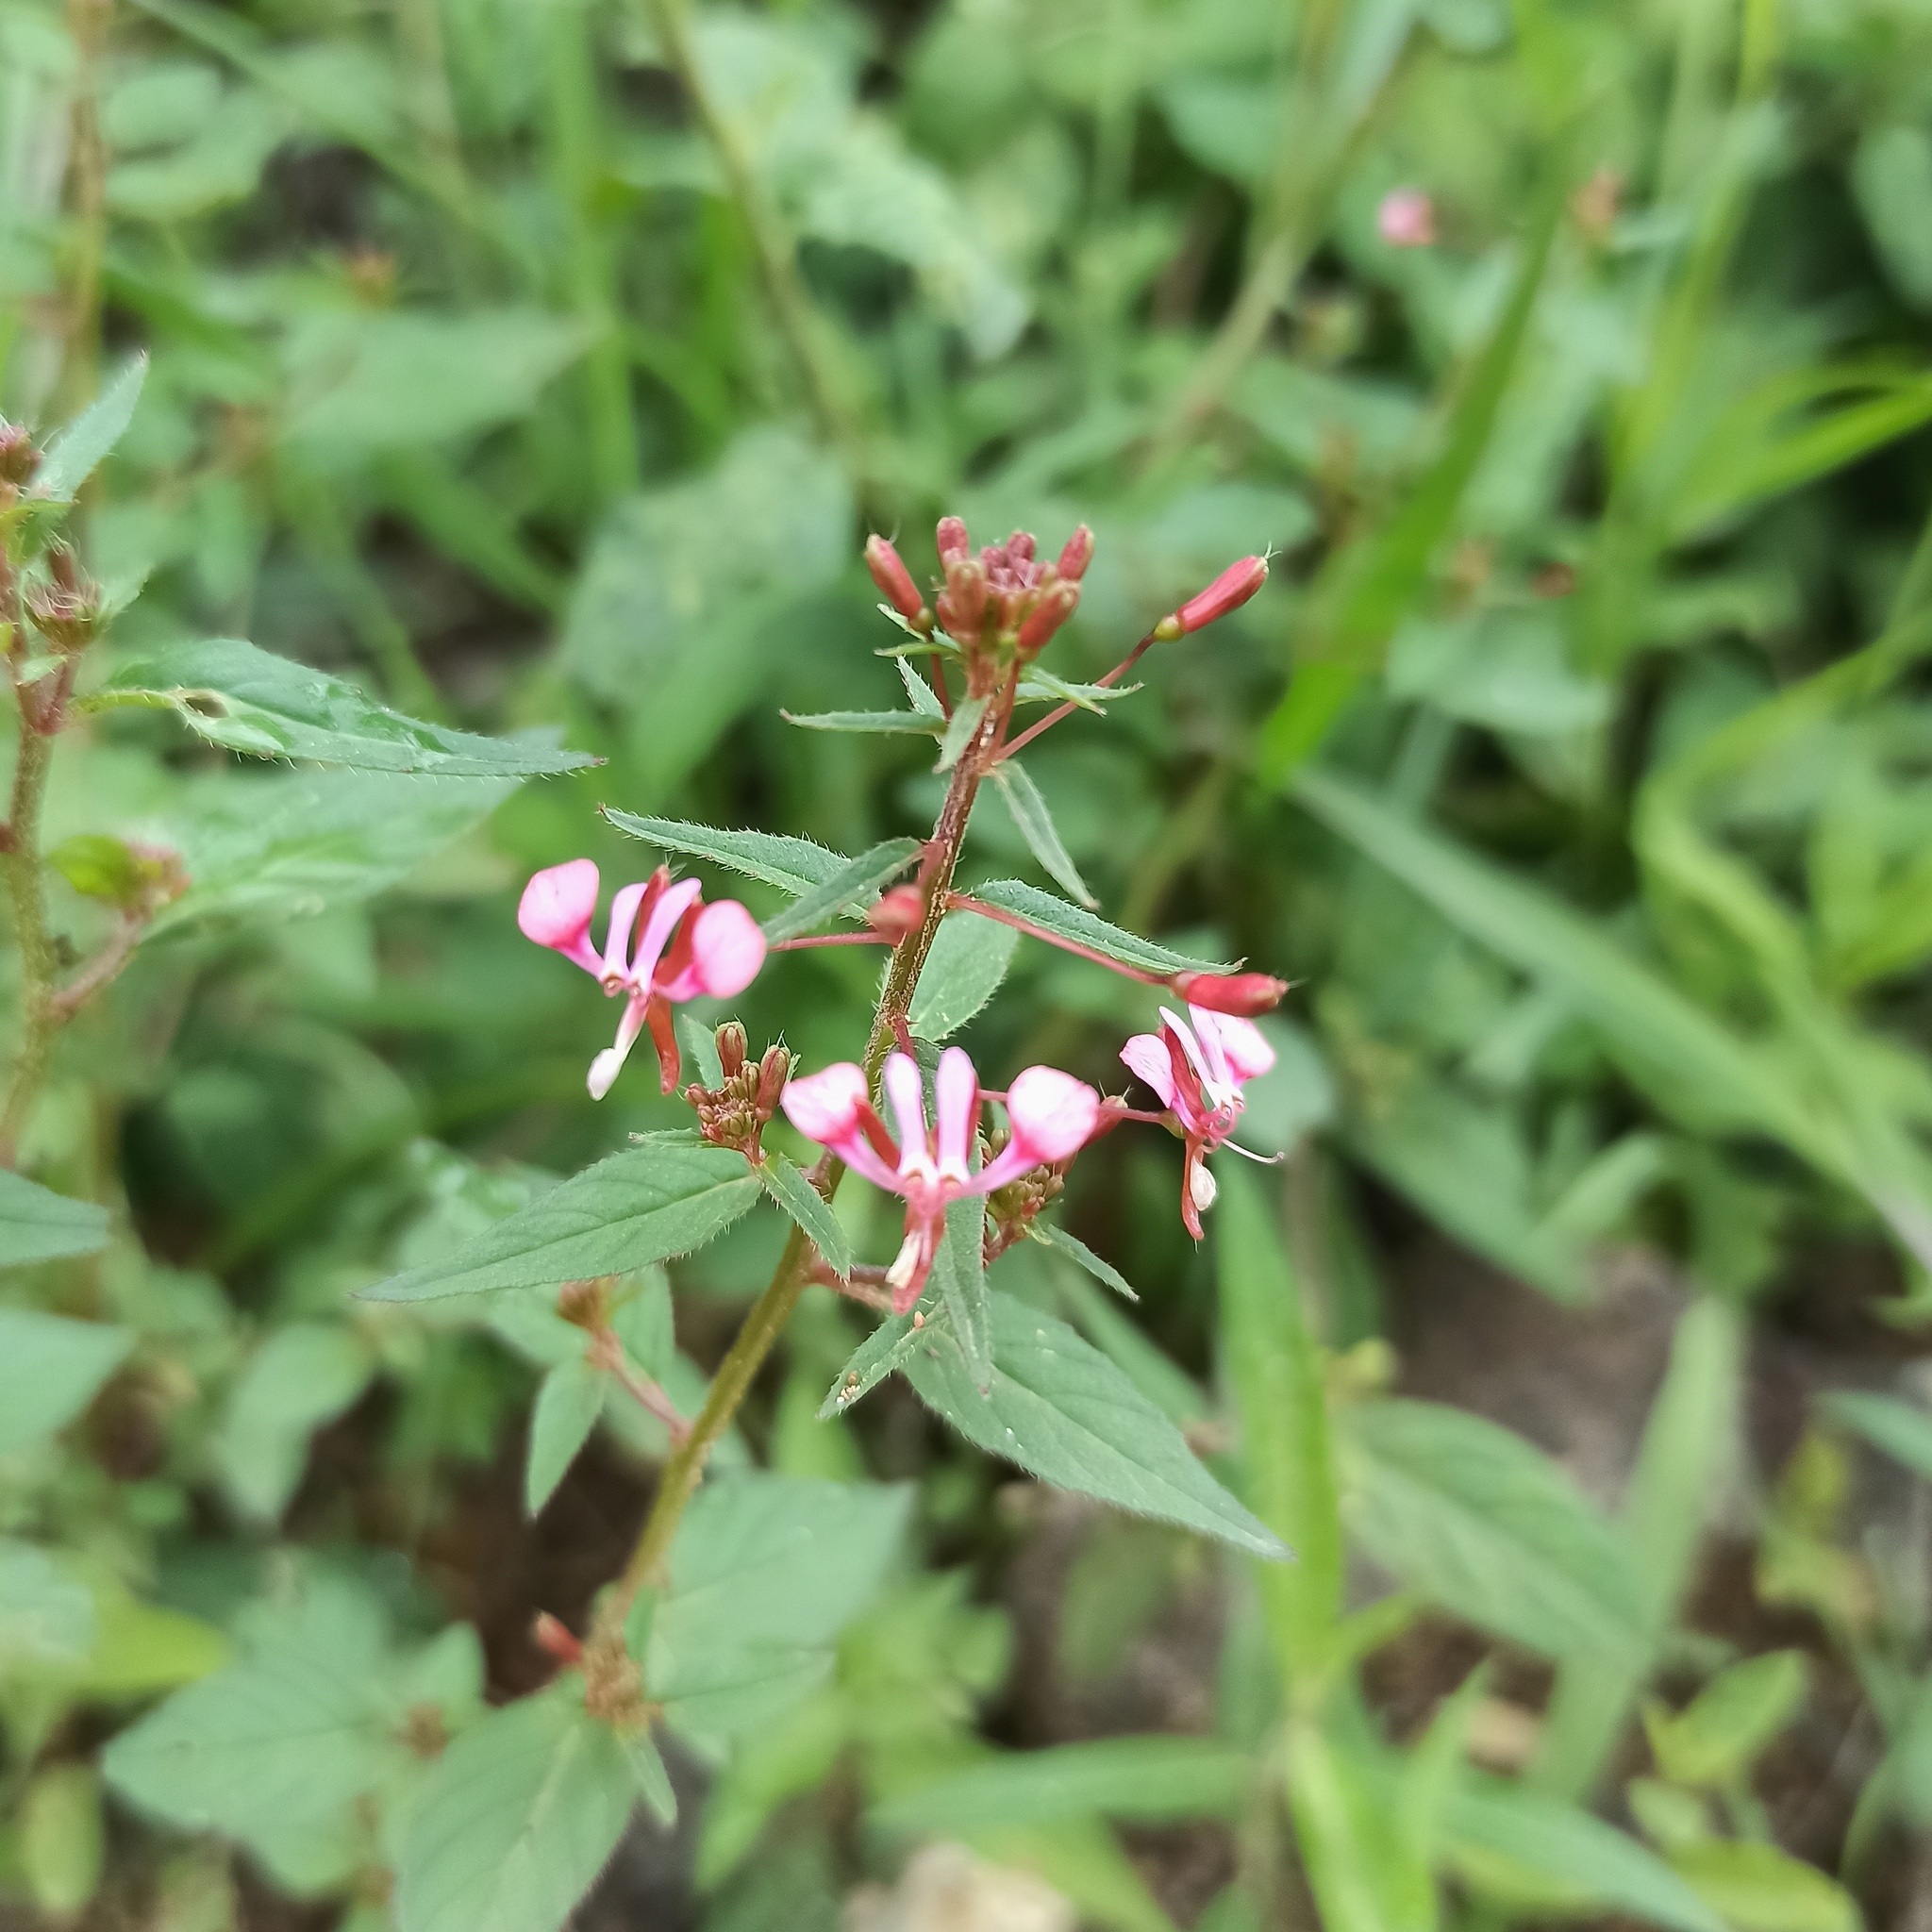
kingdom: Plantae
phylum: Tracheophyta
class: Magnoliopsida
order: Myrtales
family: Onagraceae
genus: Lopezia
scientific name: Lopezia racemosa
